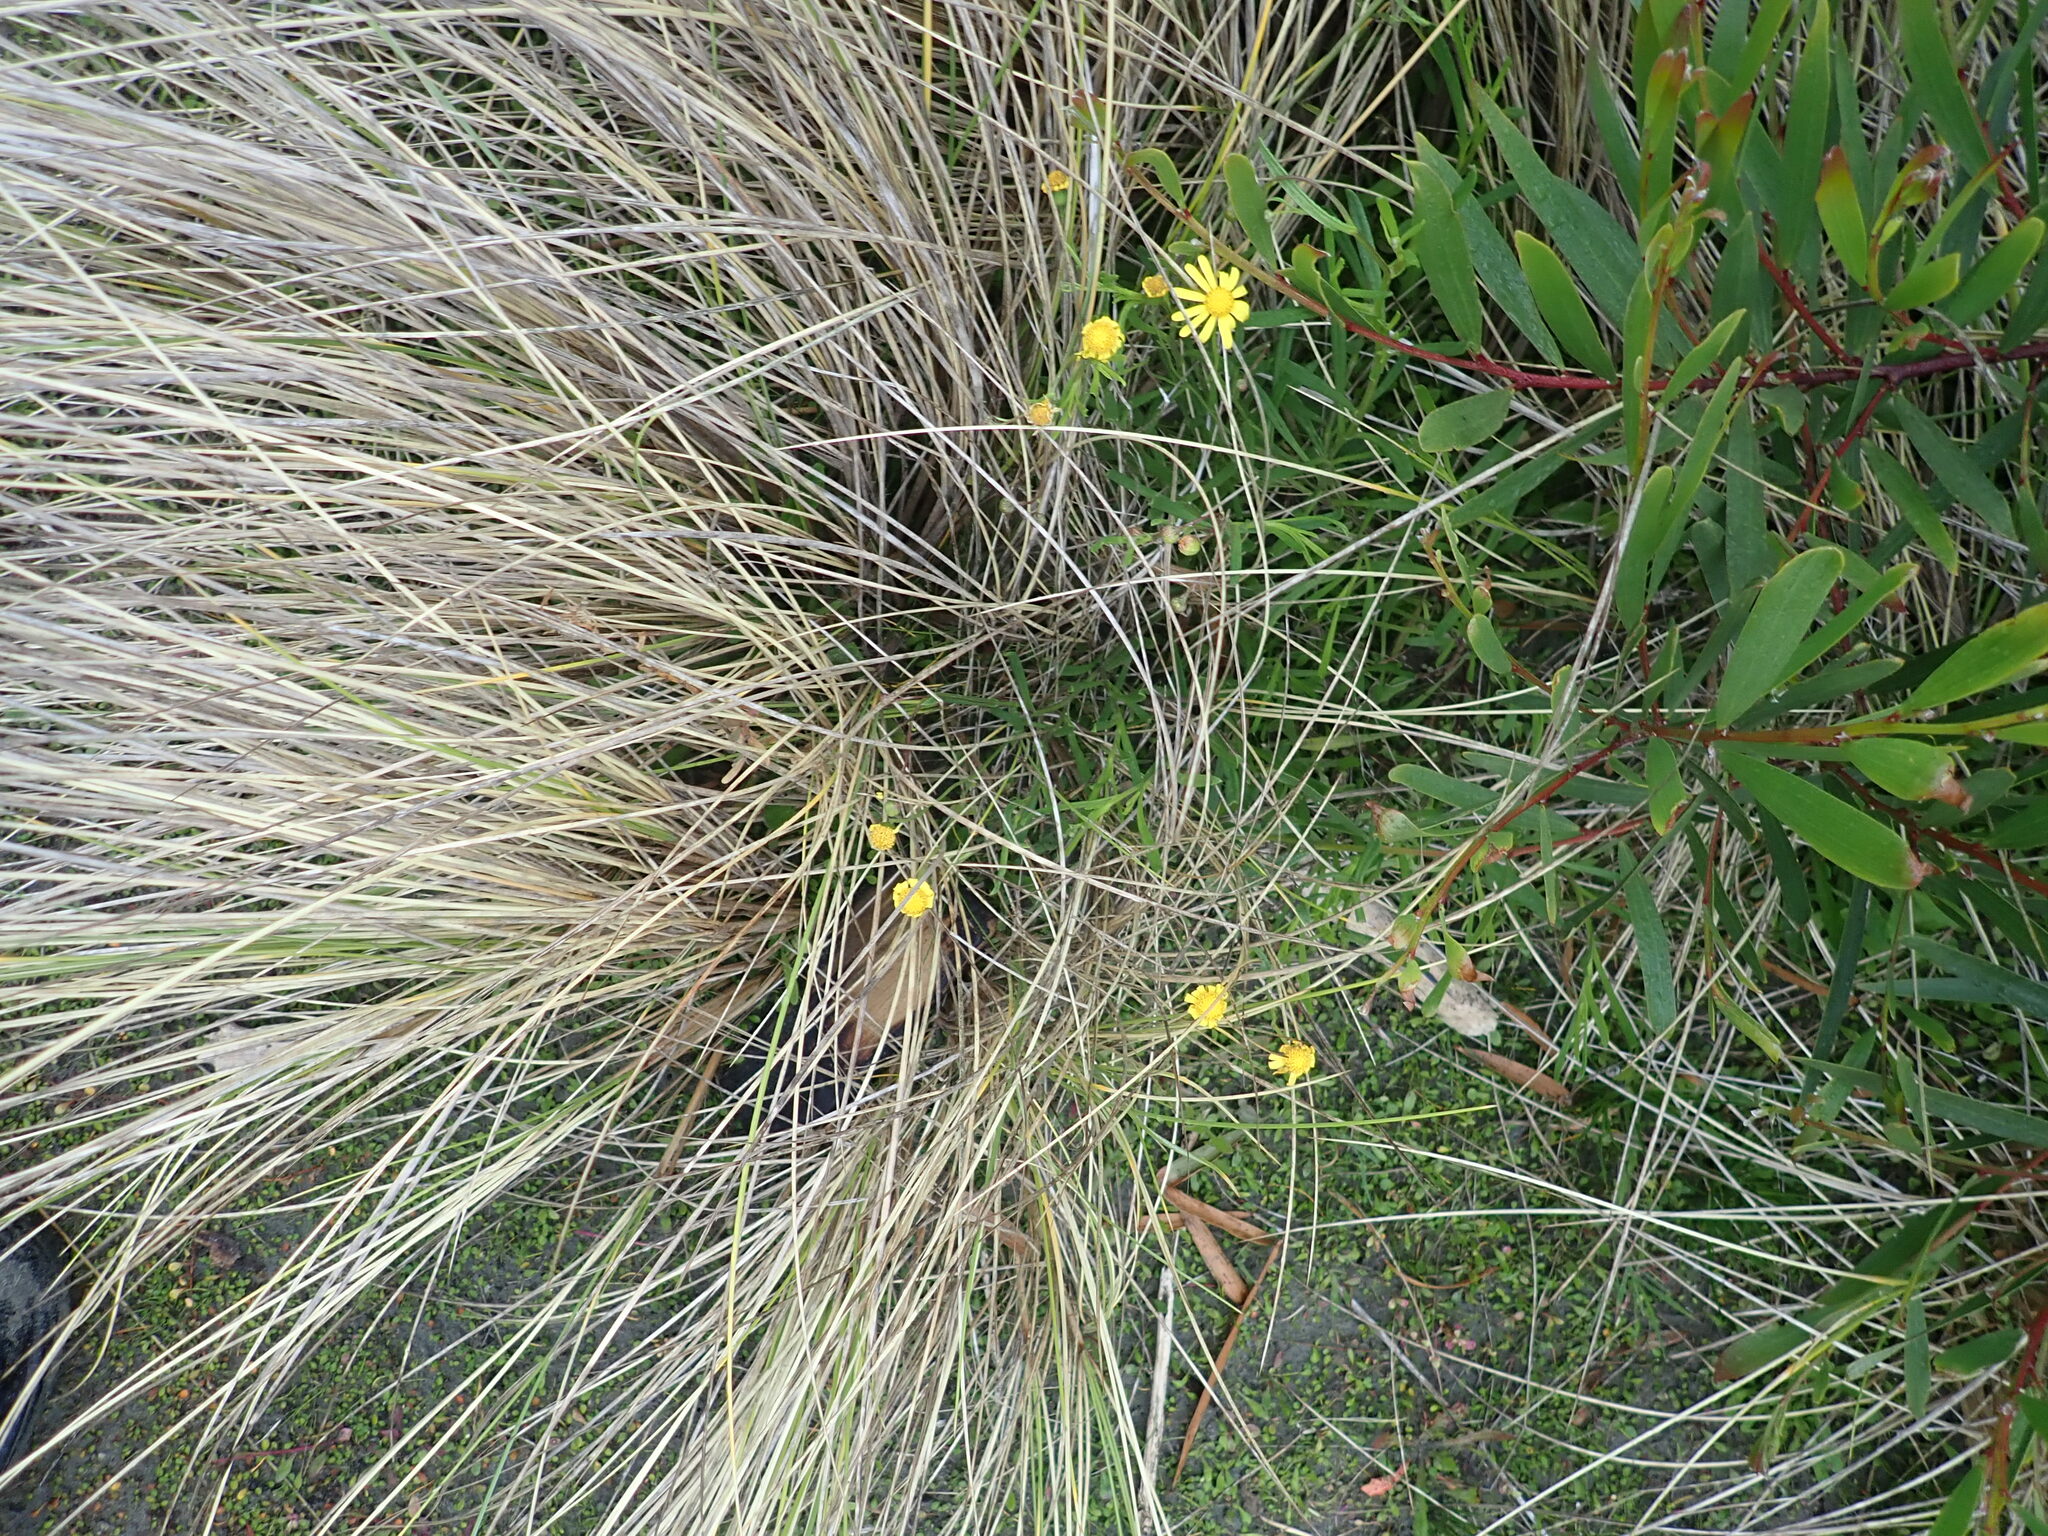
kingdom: Plantae
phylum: Tracheophyta
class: Magnoliopsida
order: Asterales
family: Asteraceae
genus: Senecio
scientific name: Senecio skirrhodon
